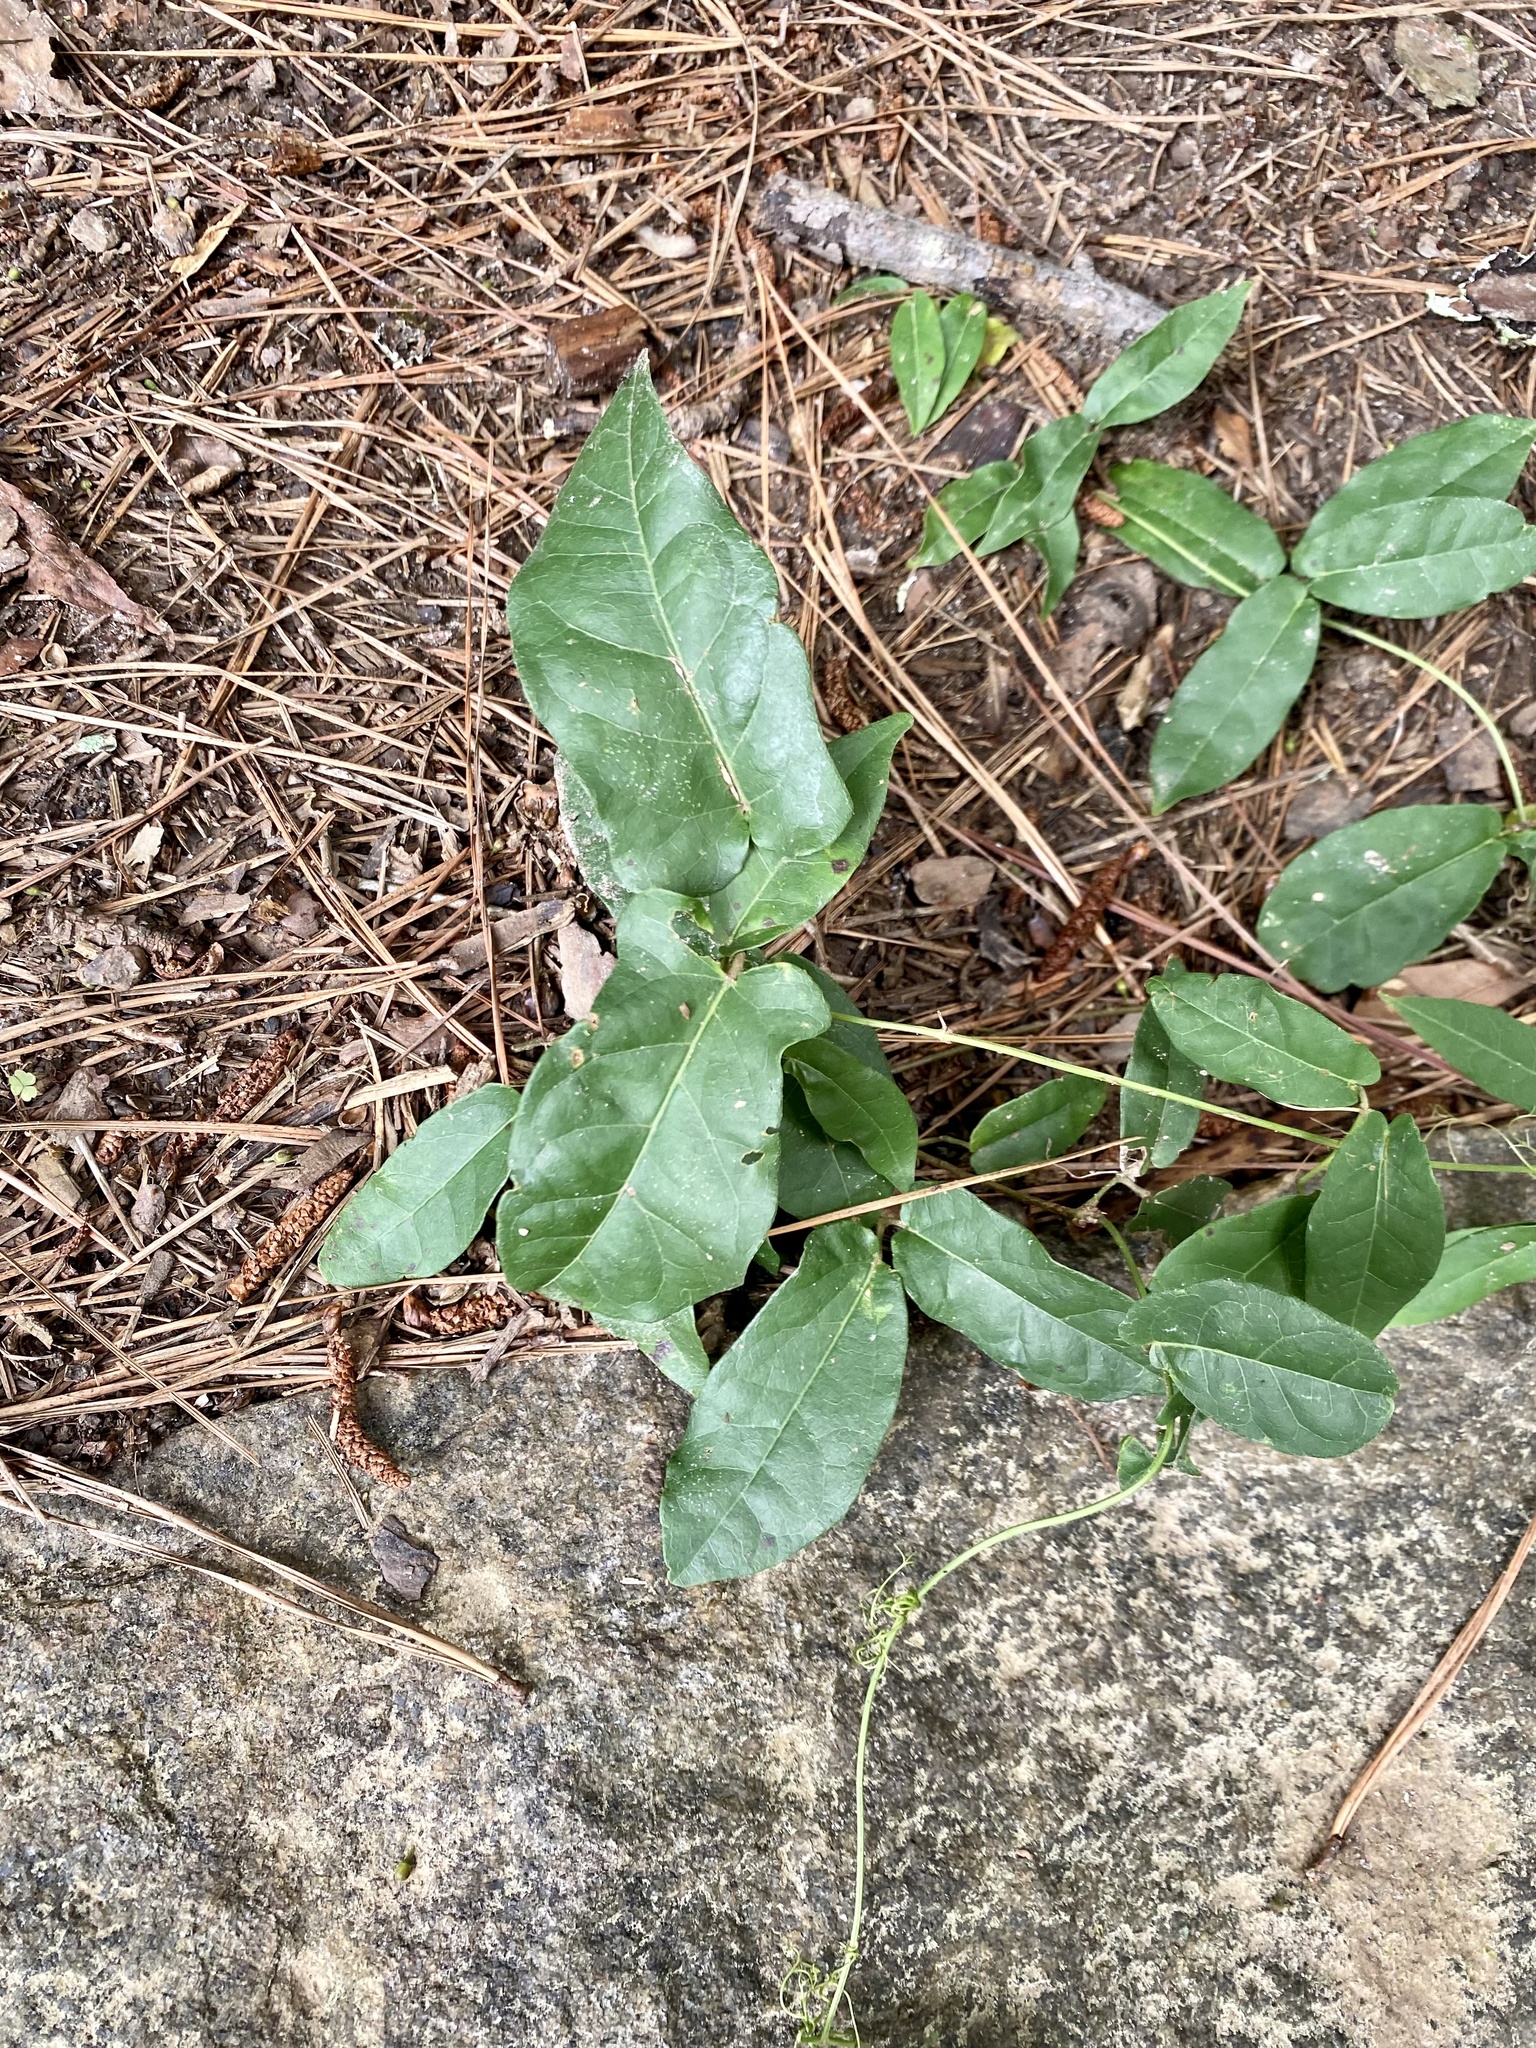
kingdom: Plantae
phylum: Tracheophyta
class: Magnoliopsida
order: Lamiales
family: Bignoniaceae
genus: Bignonia
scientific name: Bignonia capreolata
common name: Crossvine
